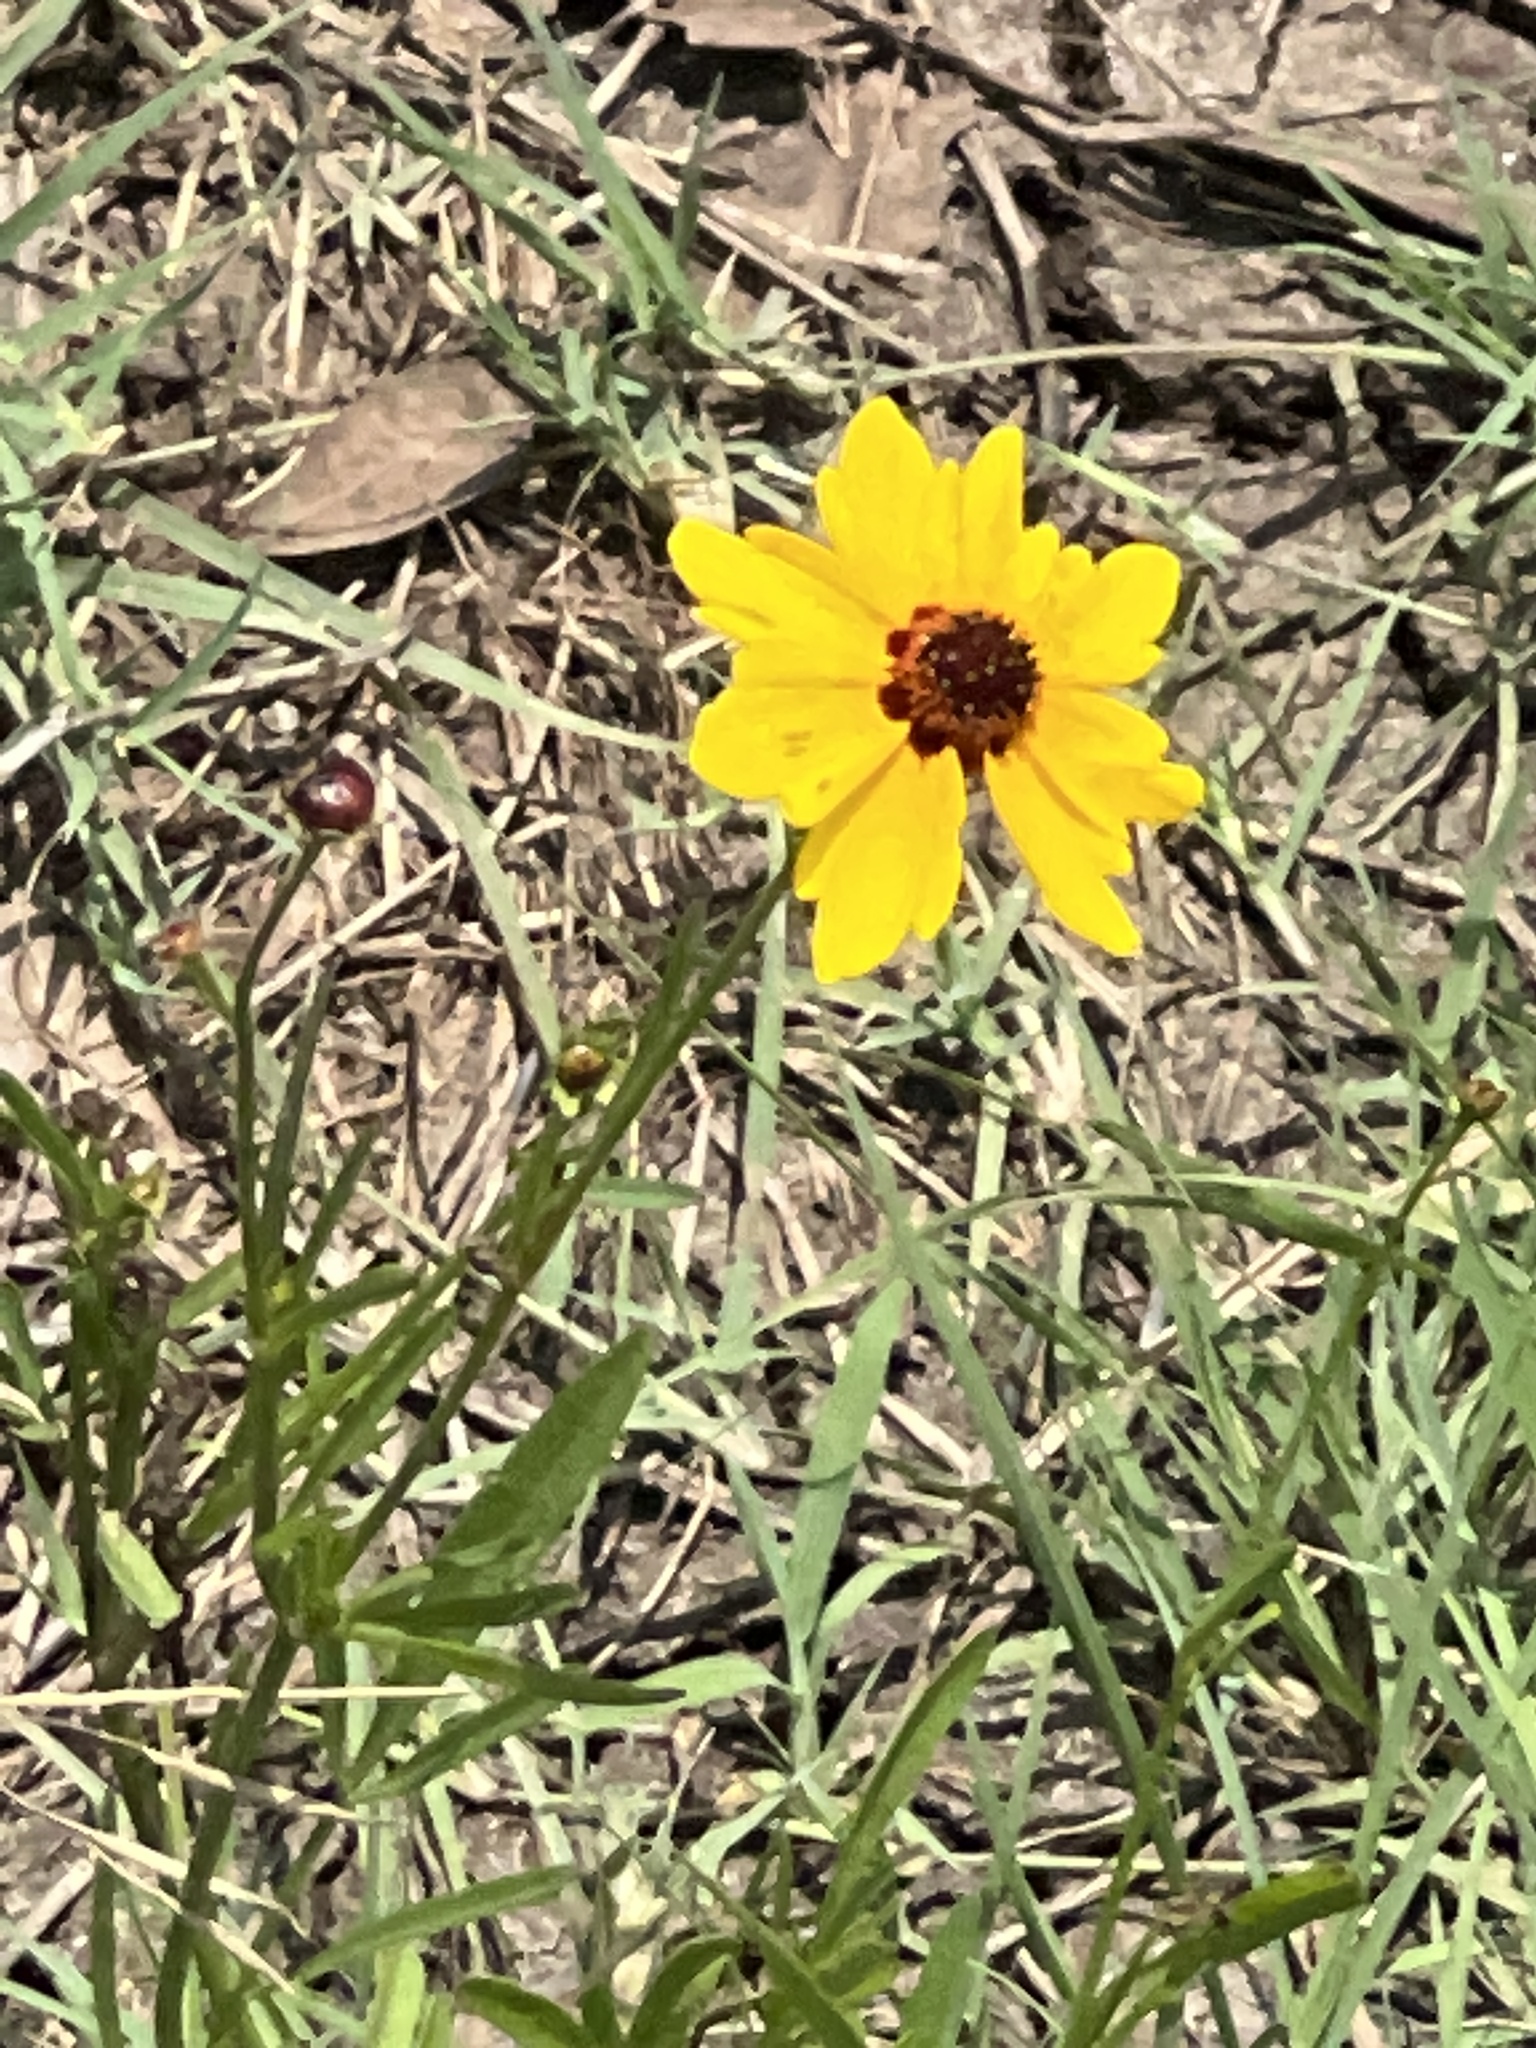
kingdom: Plantae
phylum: Tracheophyta
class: Magnoliopsida
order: Asterales
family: Asteraceae
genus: Coreopsis
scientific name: Coreopsis tinctoria
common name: Garden tickseed
